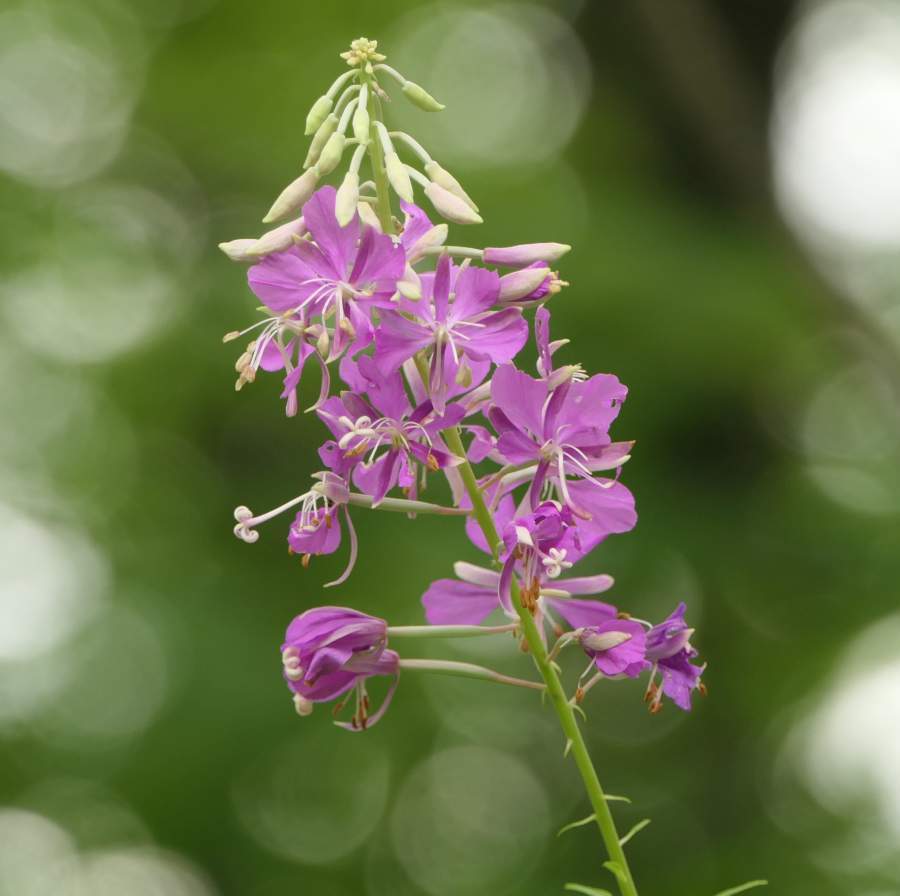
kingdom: Plantae
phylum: Tracheophyta
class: Magnoliopsida
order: Myrtales
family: Onagraceae
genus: Chamaenerion
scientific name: Chamaenerion angustifolium
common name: Fireweed
